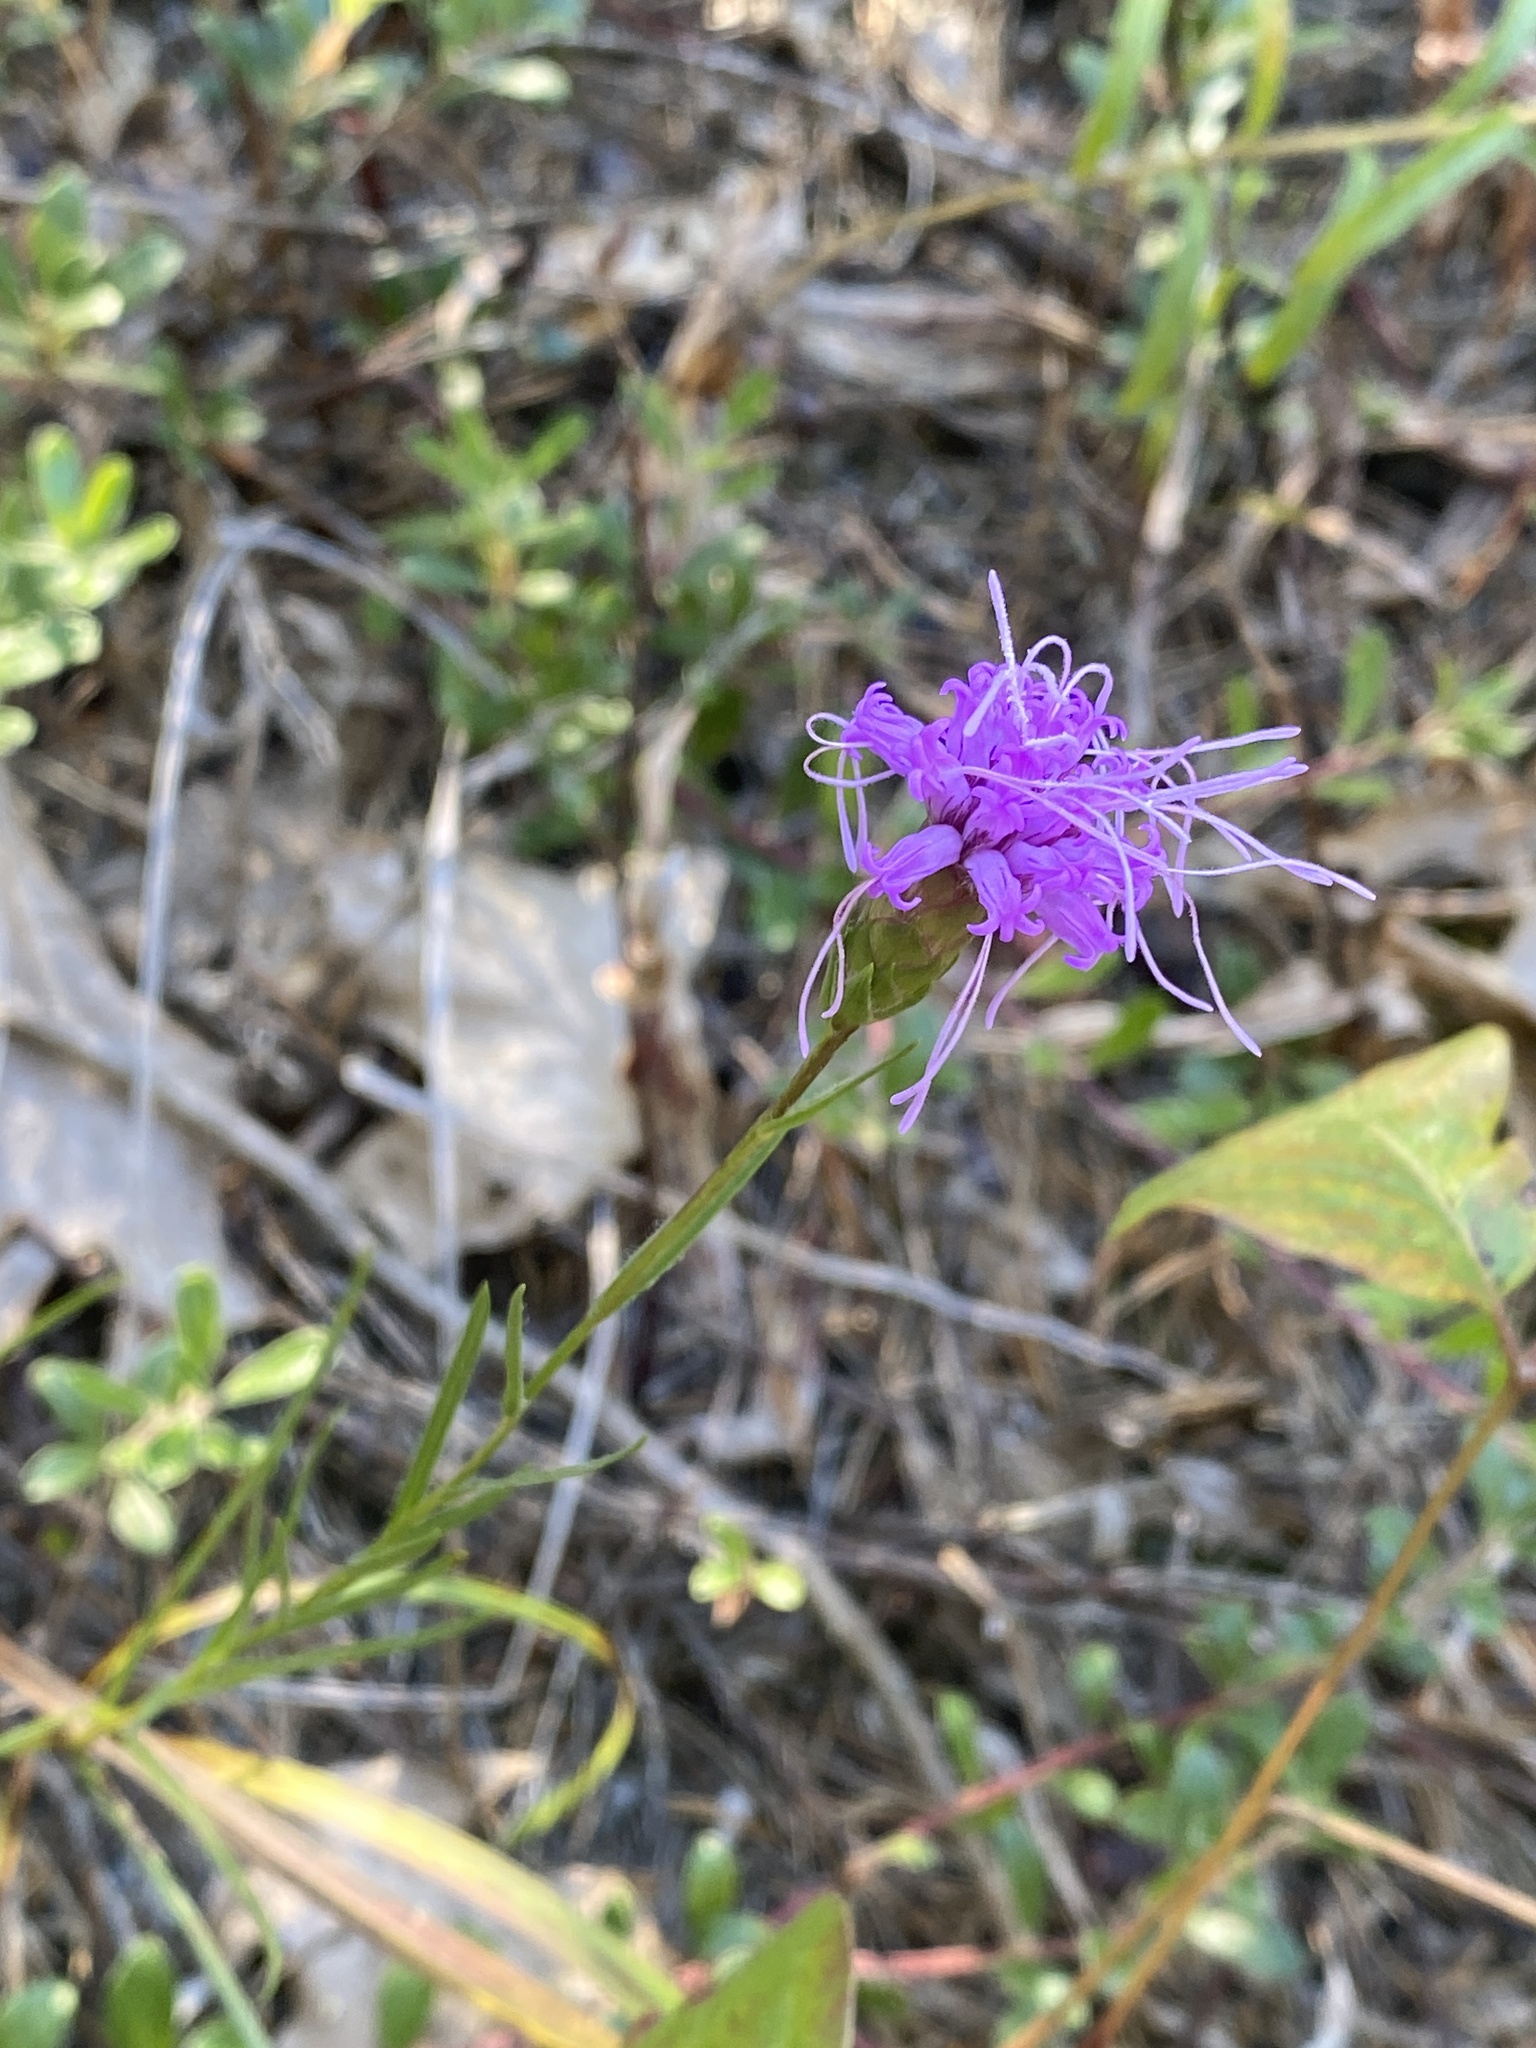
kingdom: Plantae
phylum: Tracheophyta
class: Magnoliopsida
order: Asterales
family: Asteraceae
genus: Liatris
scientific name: Liatris cylindracea
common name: Few-head blazingstar
